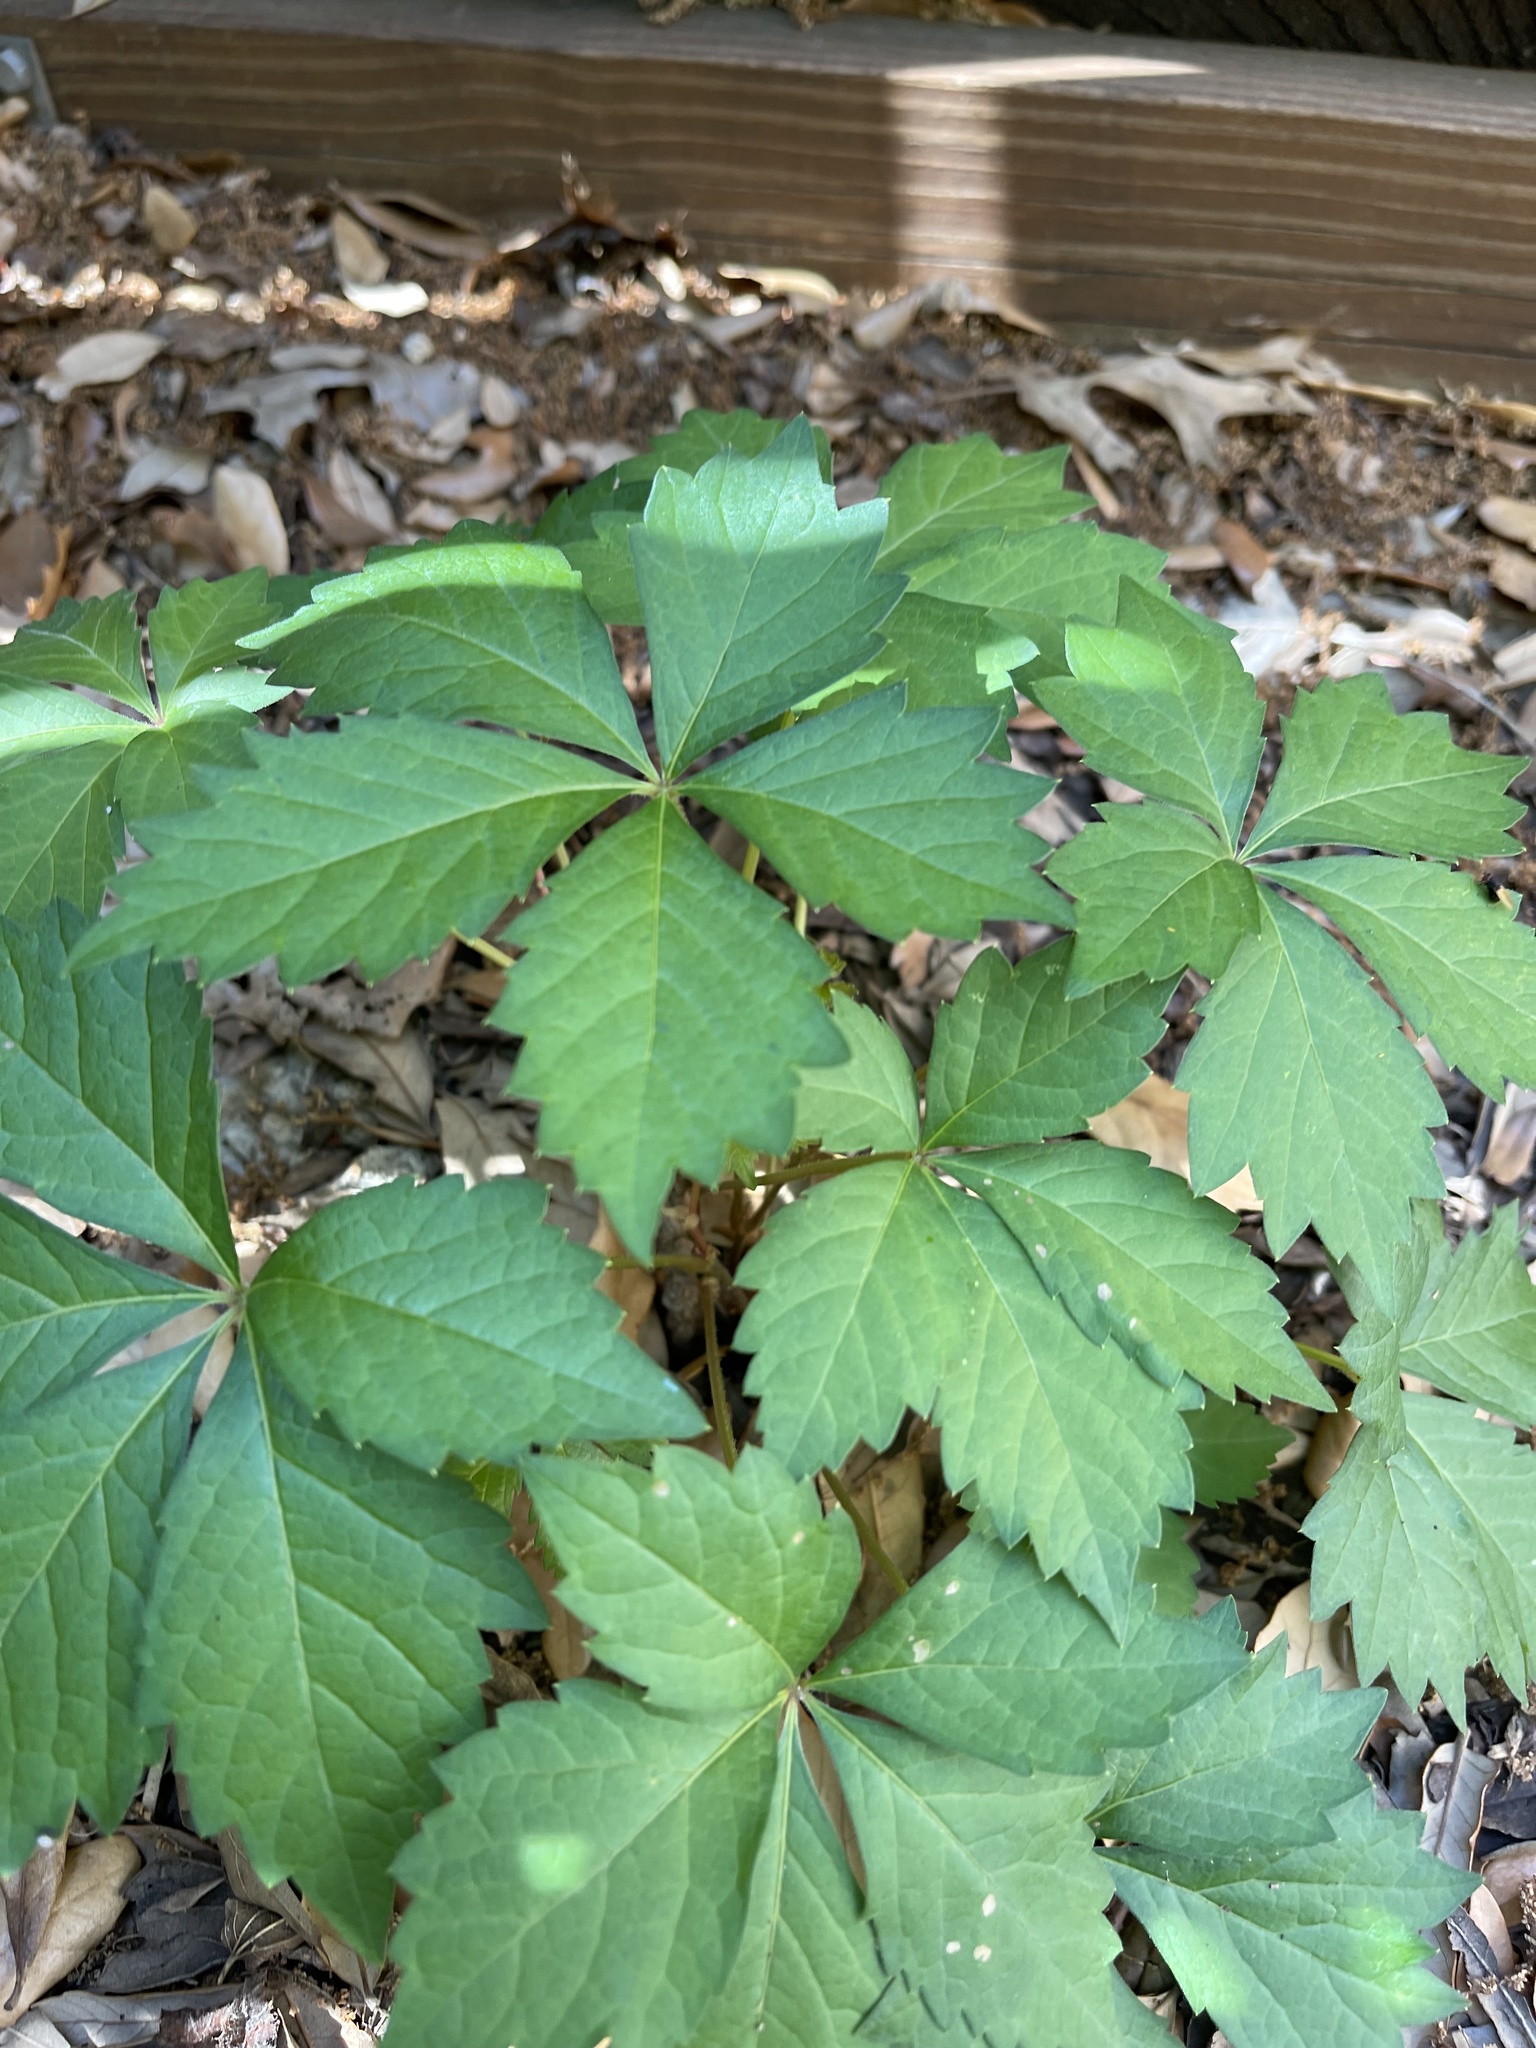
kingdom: Plantae
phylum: Tracheophyta
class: Magnoliopsida
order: Vitales
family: Vitaceae
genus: Parthenocissus
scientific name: Parthenocissus quinquefolia
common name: Virginia-creeper
